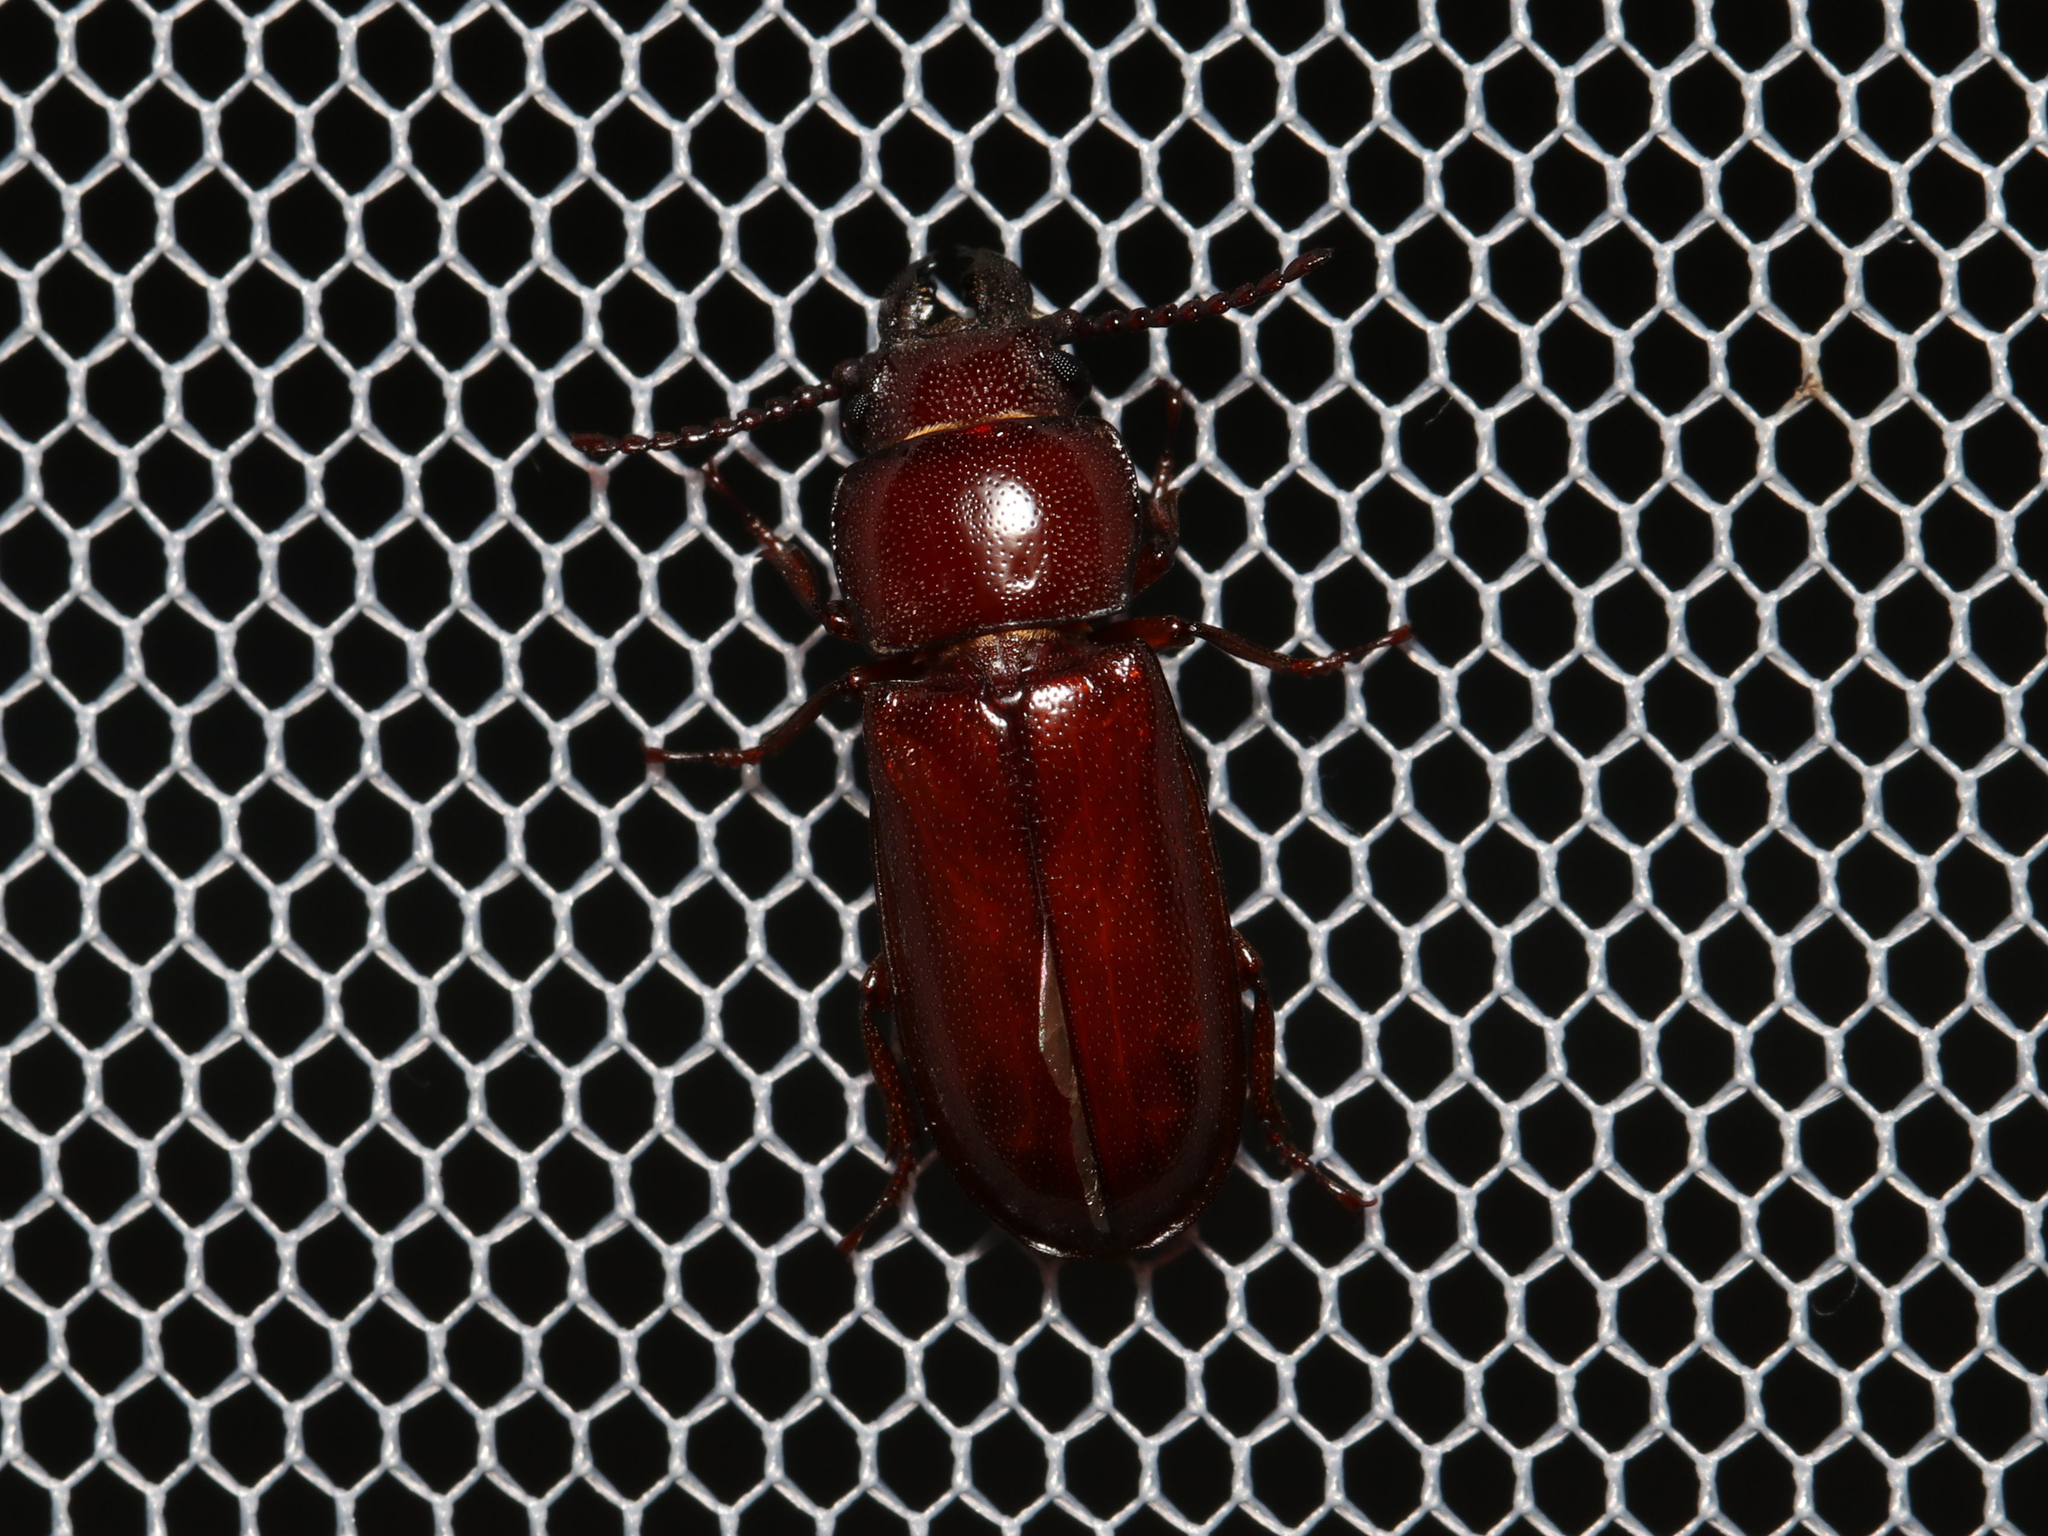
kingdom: Animalia
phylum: Arthropoda
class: Insecta
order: Coleoptera
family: Cerambycidae
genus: Neandra
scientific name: Neandra brunnea
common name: Pole borer
